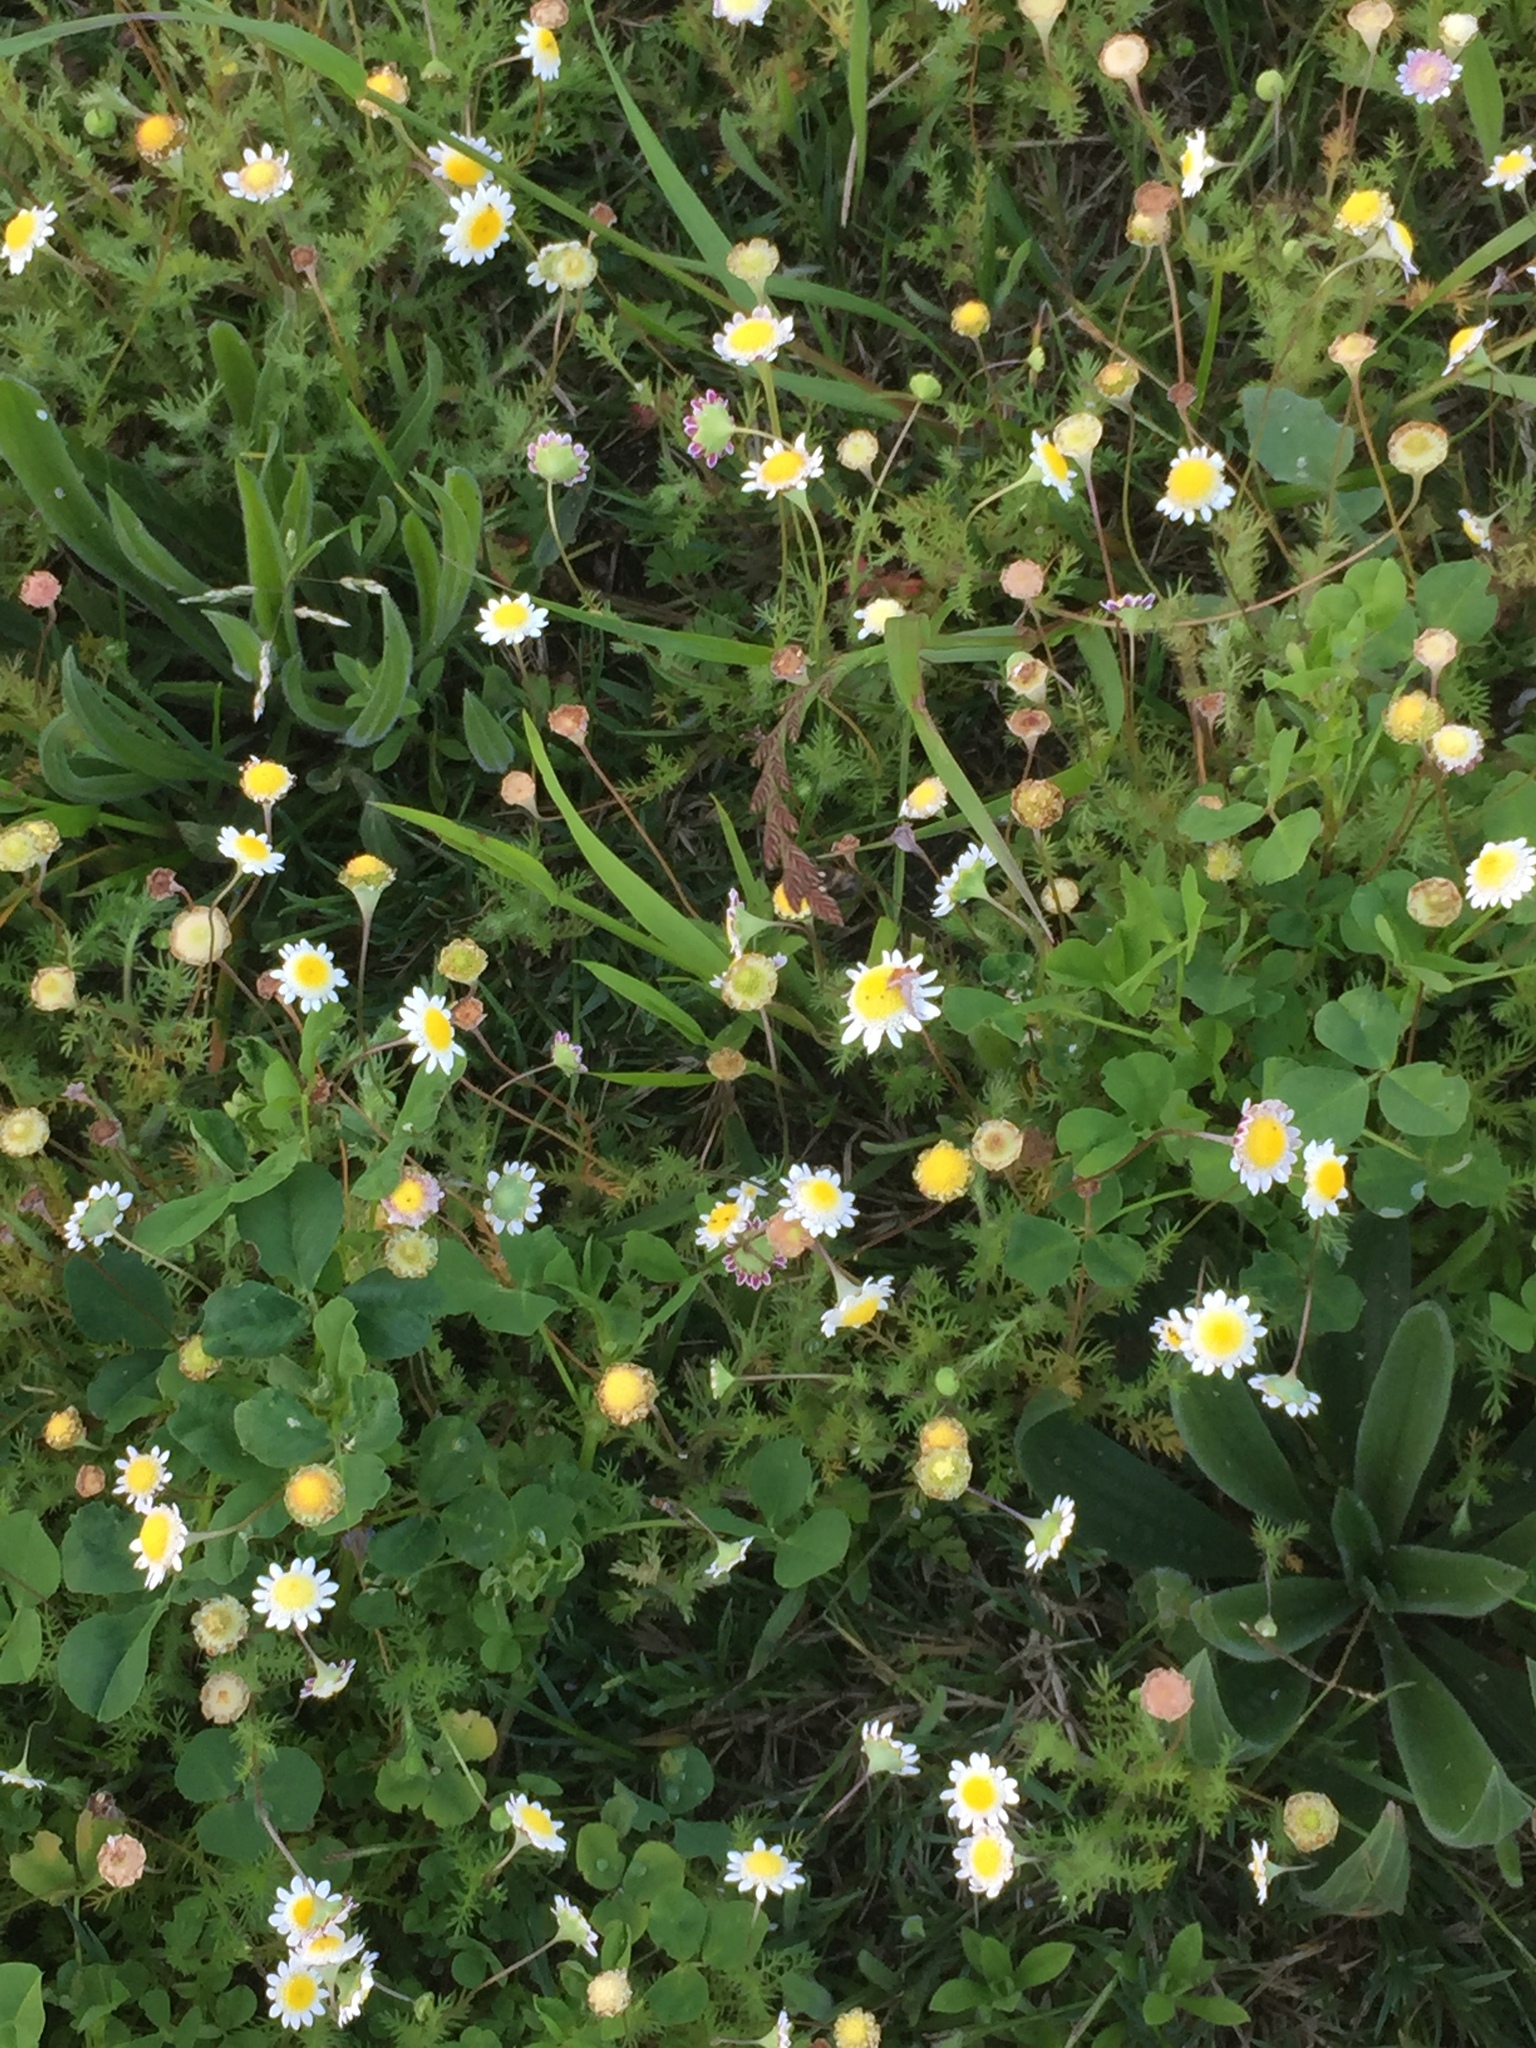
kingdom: Plantae
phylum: Tracheophyta
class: Magnoliopsida
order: Asterales
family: Asteraceae
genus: Cotula
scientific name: Cotula turbinata
